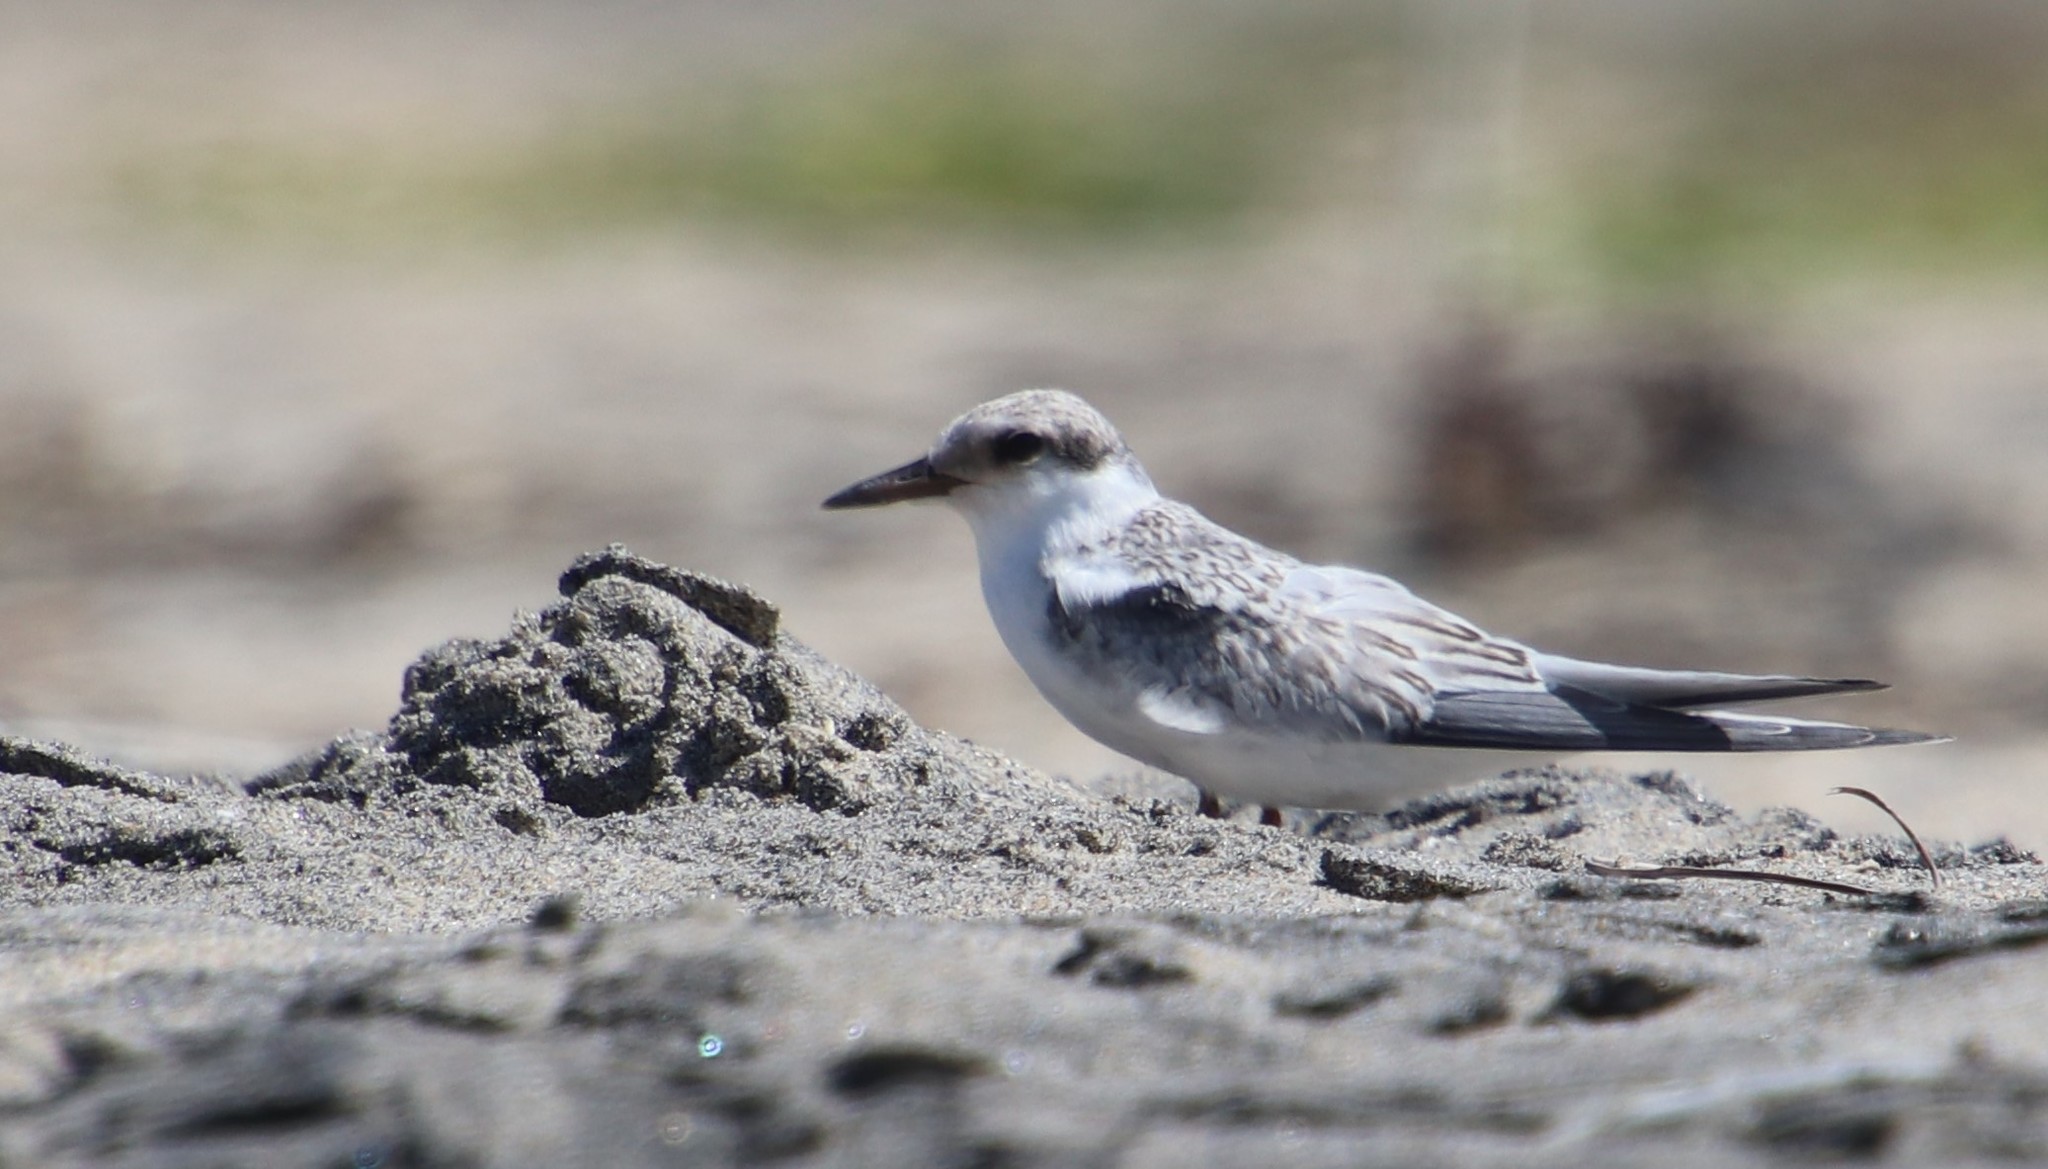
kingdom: Animalia
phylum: Chordata
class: Aves
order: Charadriiformes
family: Laridae
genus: Sternula
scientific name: Sternula antillarum
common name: Least tern
